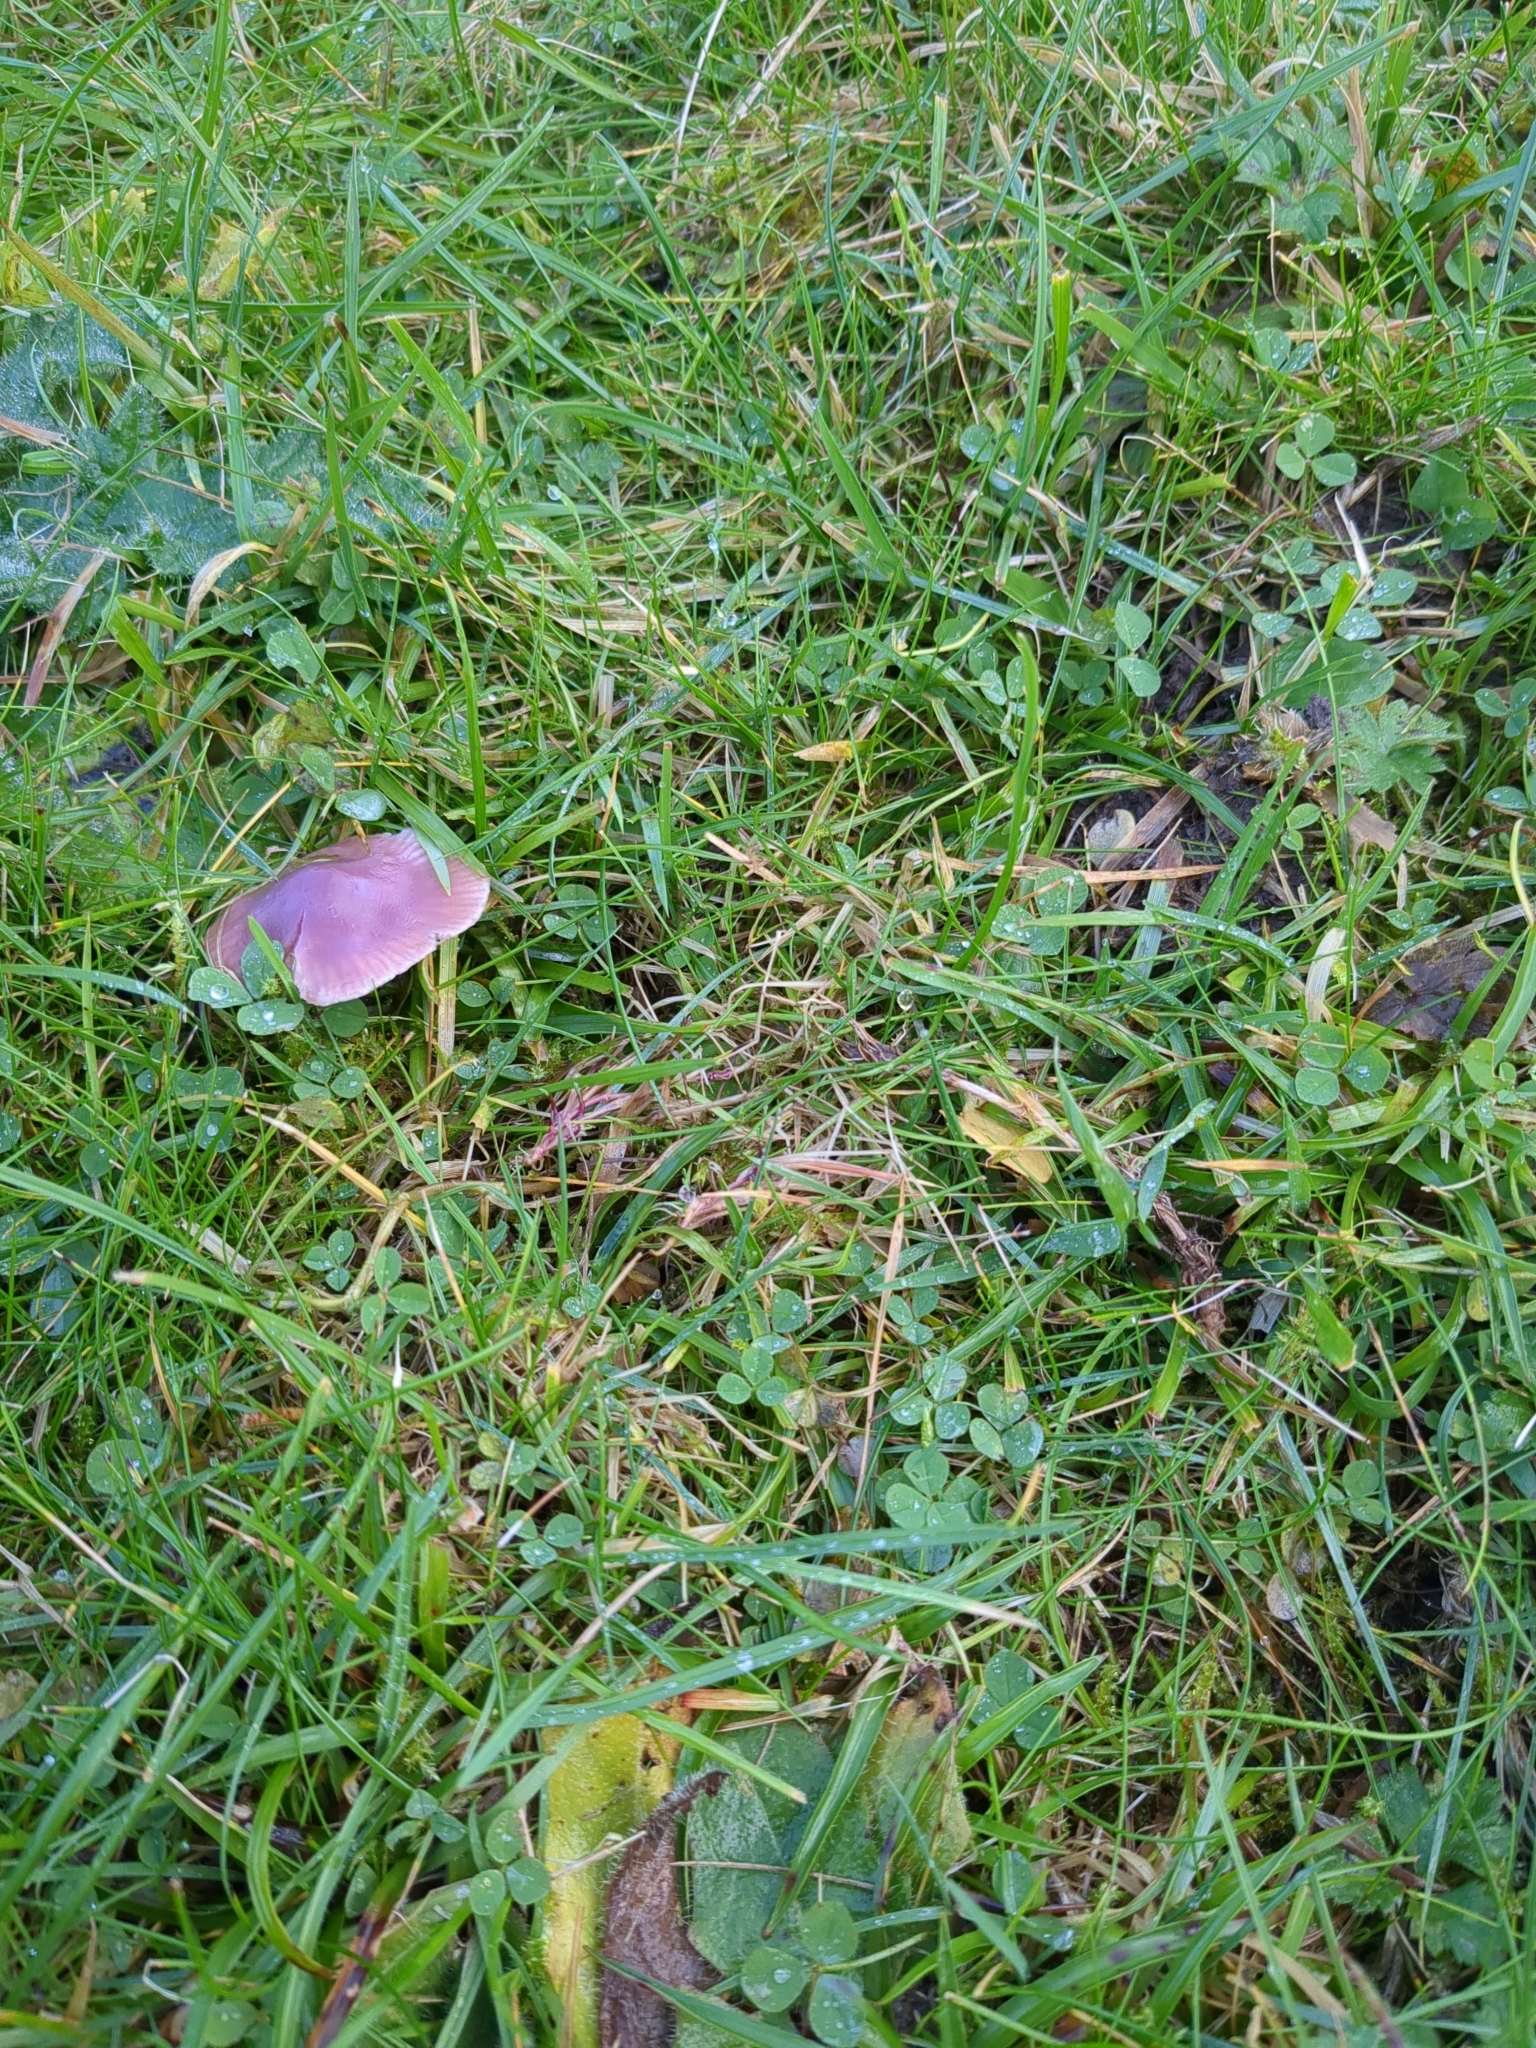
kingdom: Fungi
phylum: Basidiomycota
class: Agaricomycetes
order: Agaricales
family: Hygrophoraceae
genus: Gliophorus
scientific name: Gliophorus reginae
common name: Jubilee waxcap
